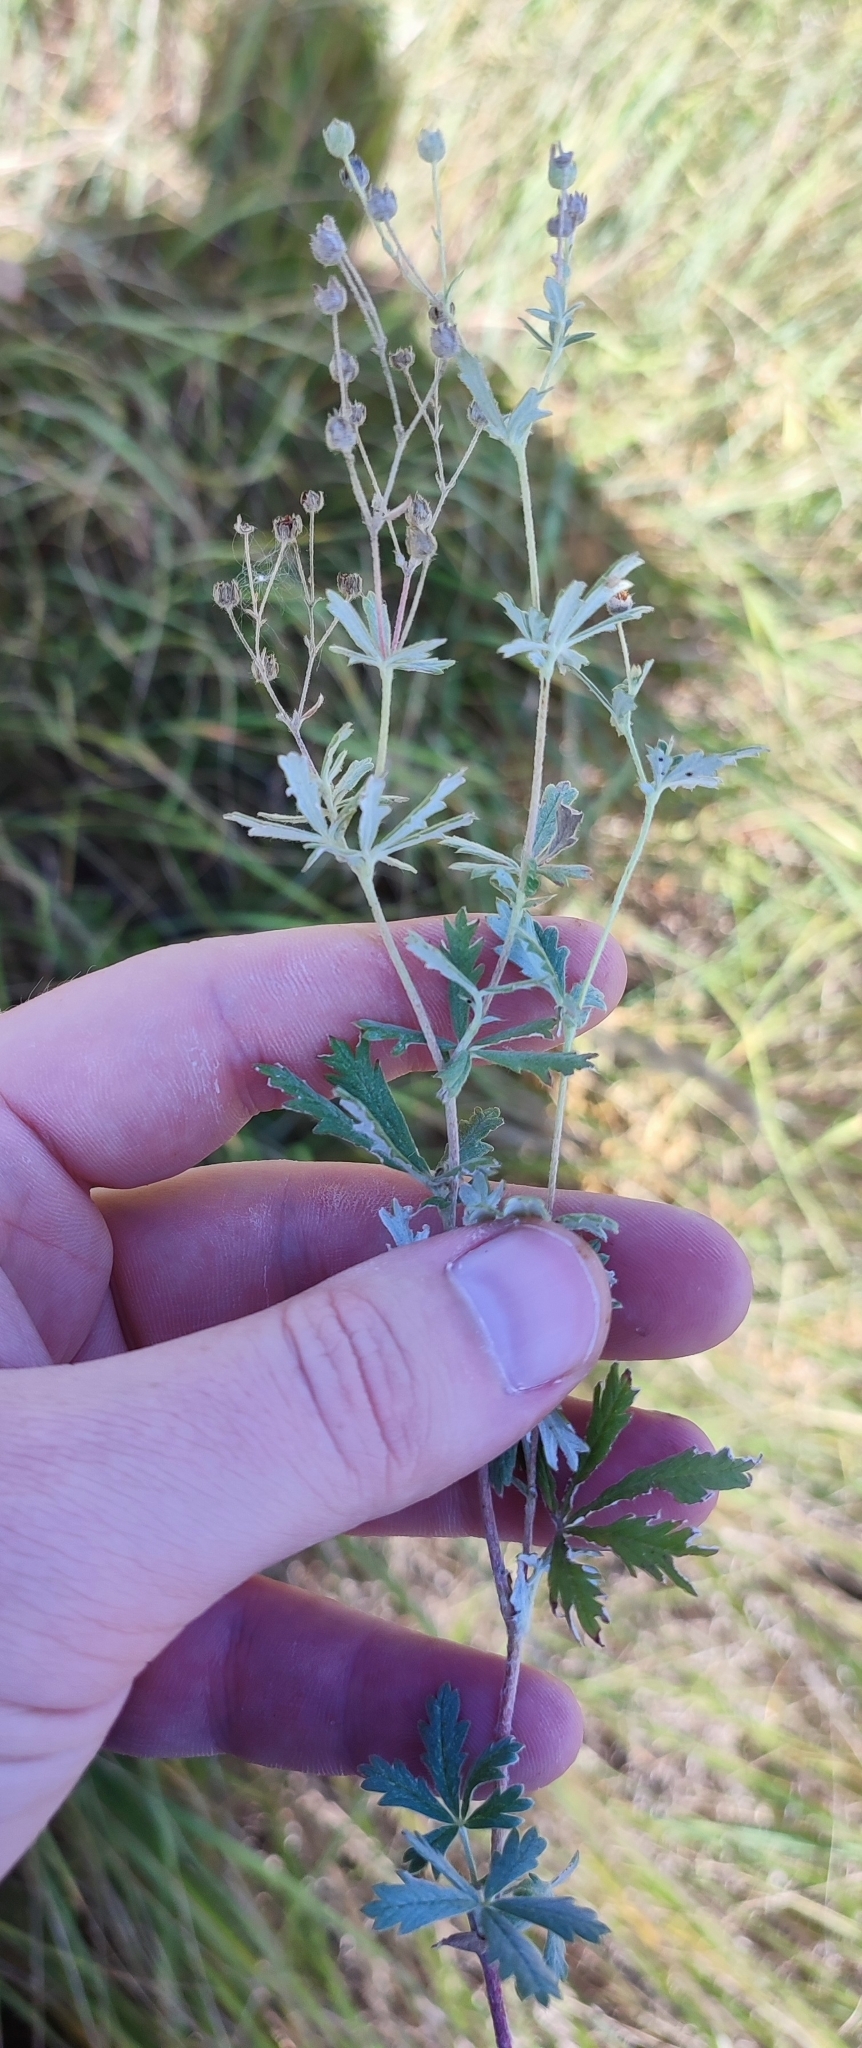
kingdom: Plantae
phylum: Tracheophyta
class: Magnoliopsida
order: Rosales
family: Rosaceae
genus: Potentilla
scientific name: Potentilla argentea
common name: Hoary cinquefoil
